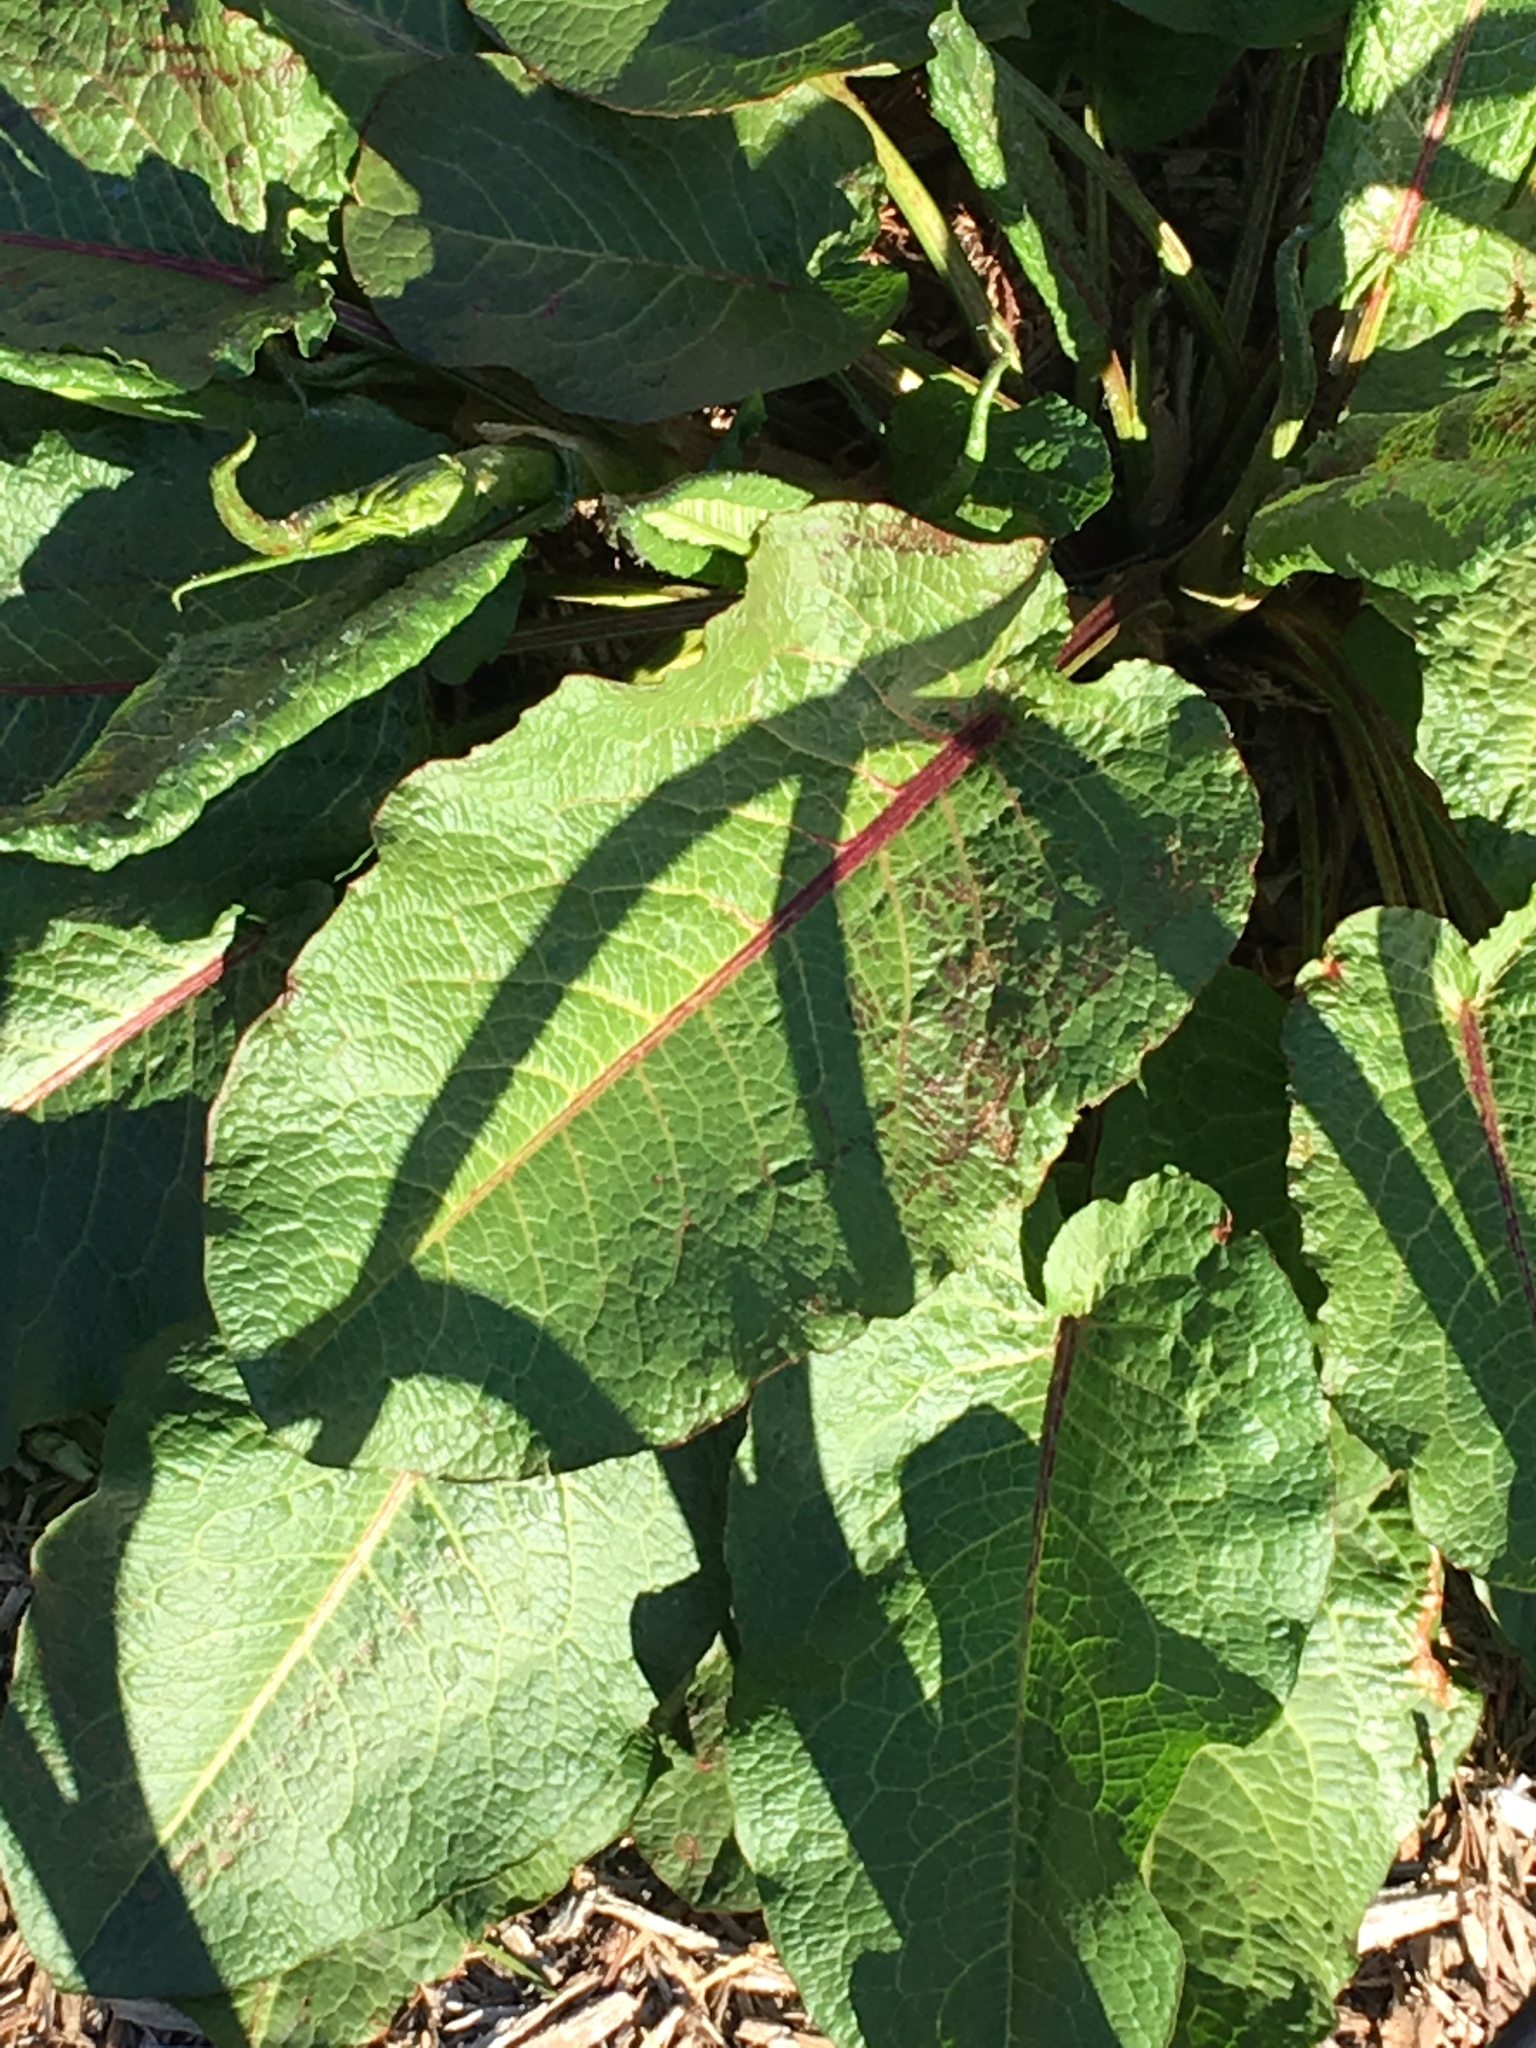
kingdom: Plantae
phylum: Tracheophyta
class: Magnoliopsida
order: Caryophyllales
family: Polygonaceae
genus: Rumex
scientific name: Rumex obtusifolius
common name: Bitter dock
